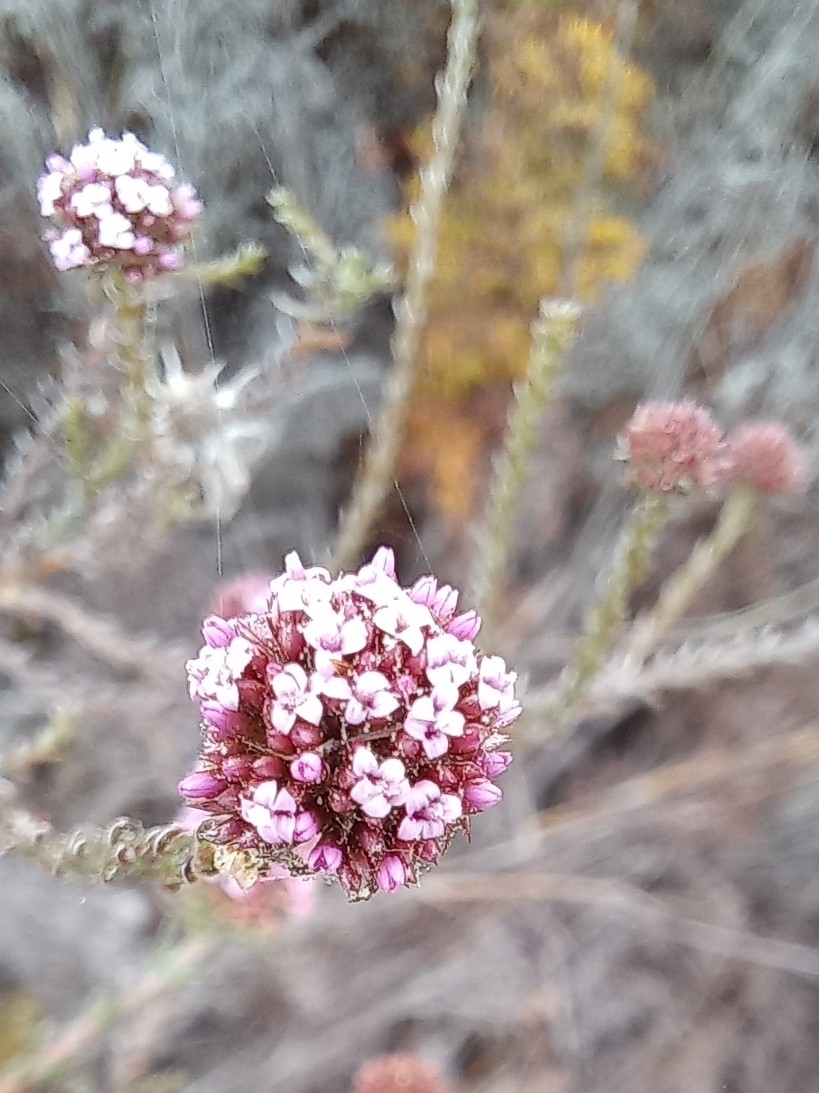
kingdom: Plantae
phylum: Tracheophyta
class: Magnoliopsida
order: Asterales
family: Asteraceae
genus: Stoebe
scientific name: Stoebe capitata
